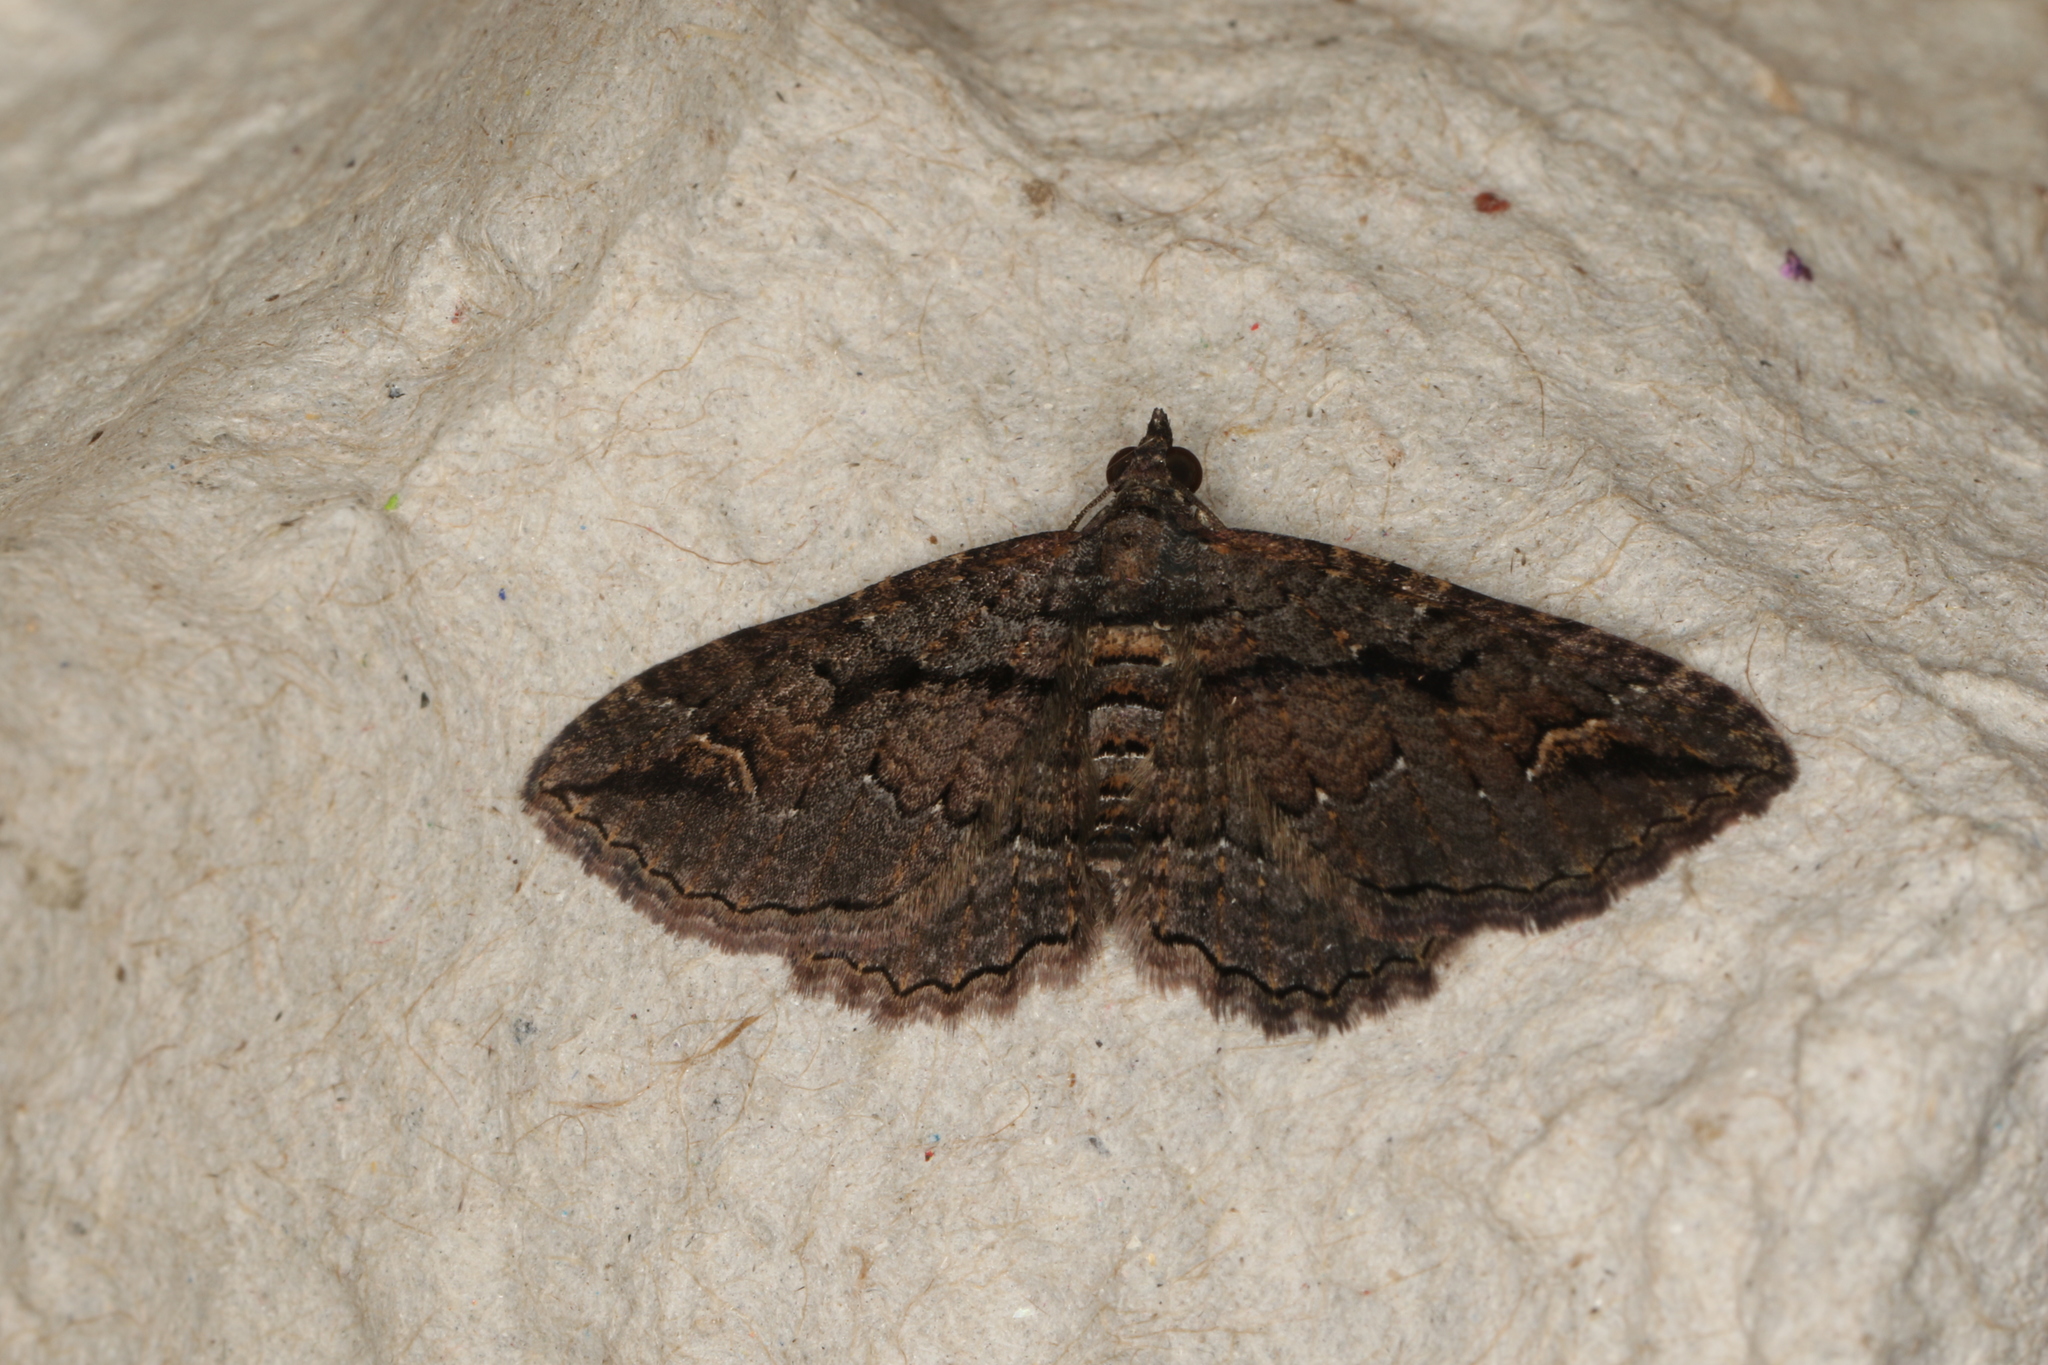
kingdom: Animalia
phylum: Arthropoda
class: Insecta
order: Lepidoptera
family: Geometridae
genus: Chrysolarentia
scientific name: Chrysolarentia plagiocausta
